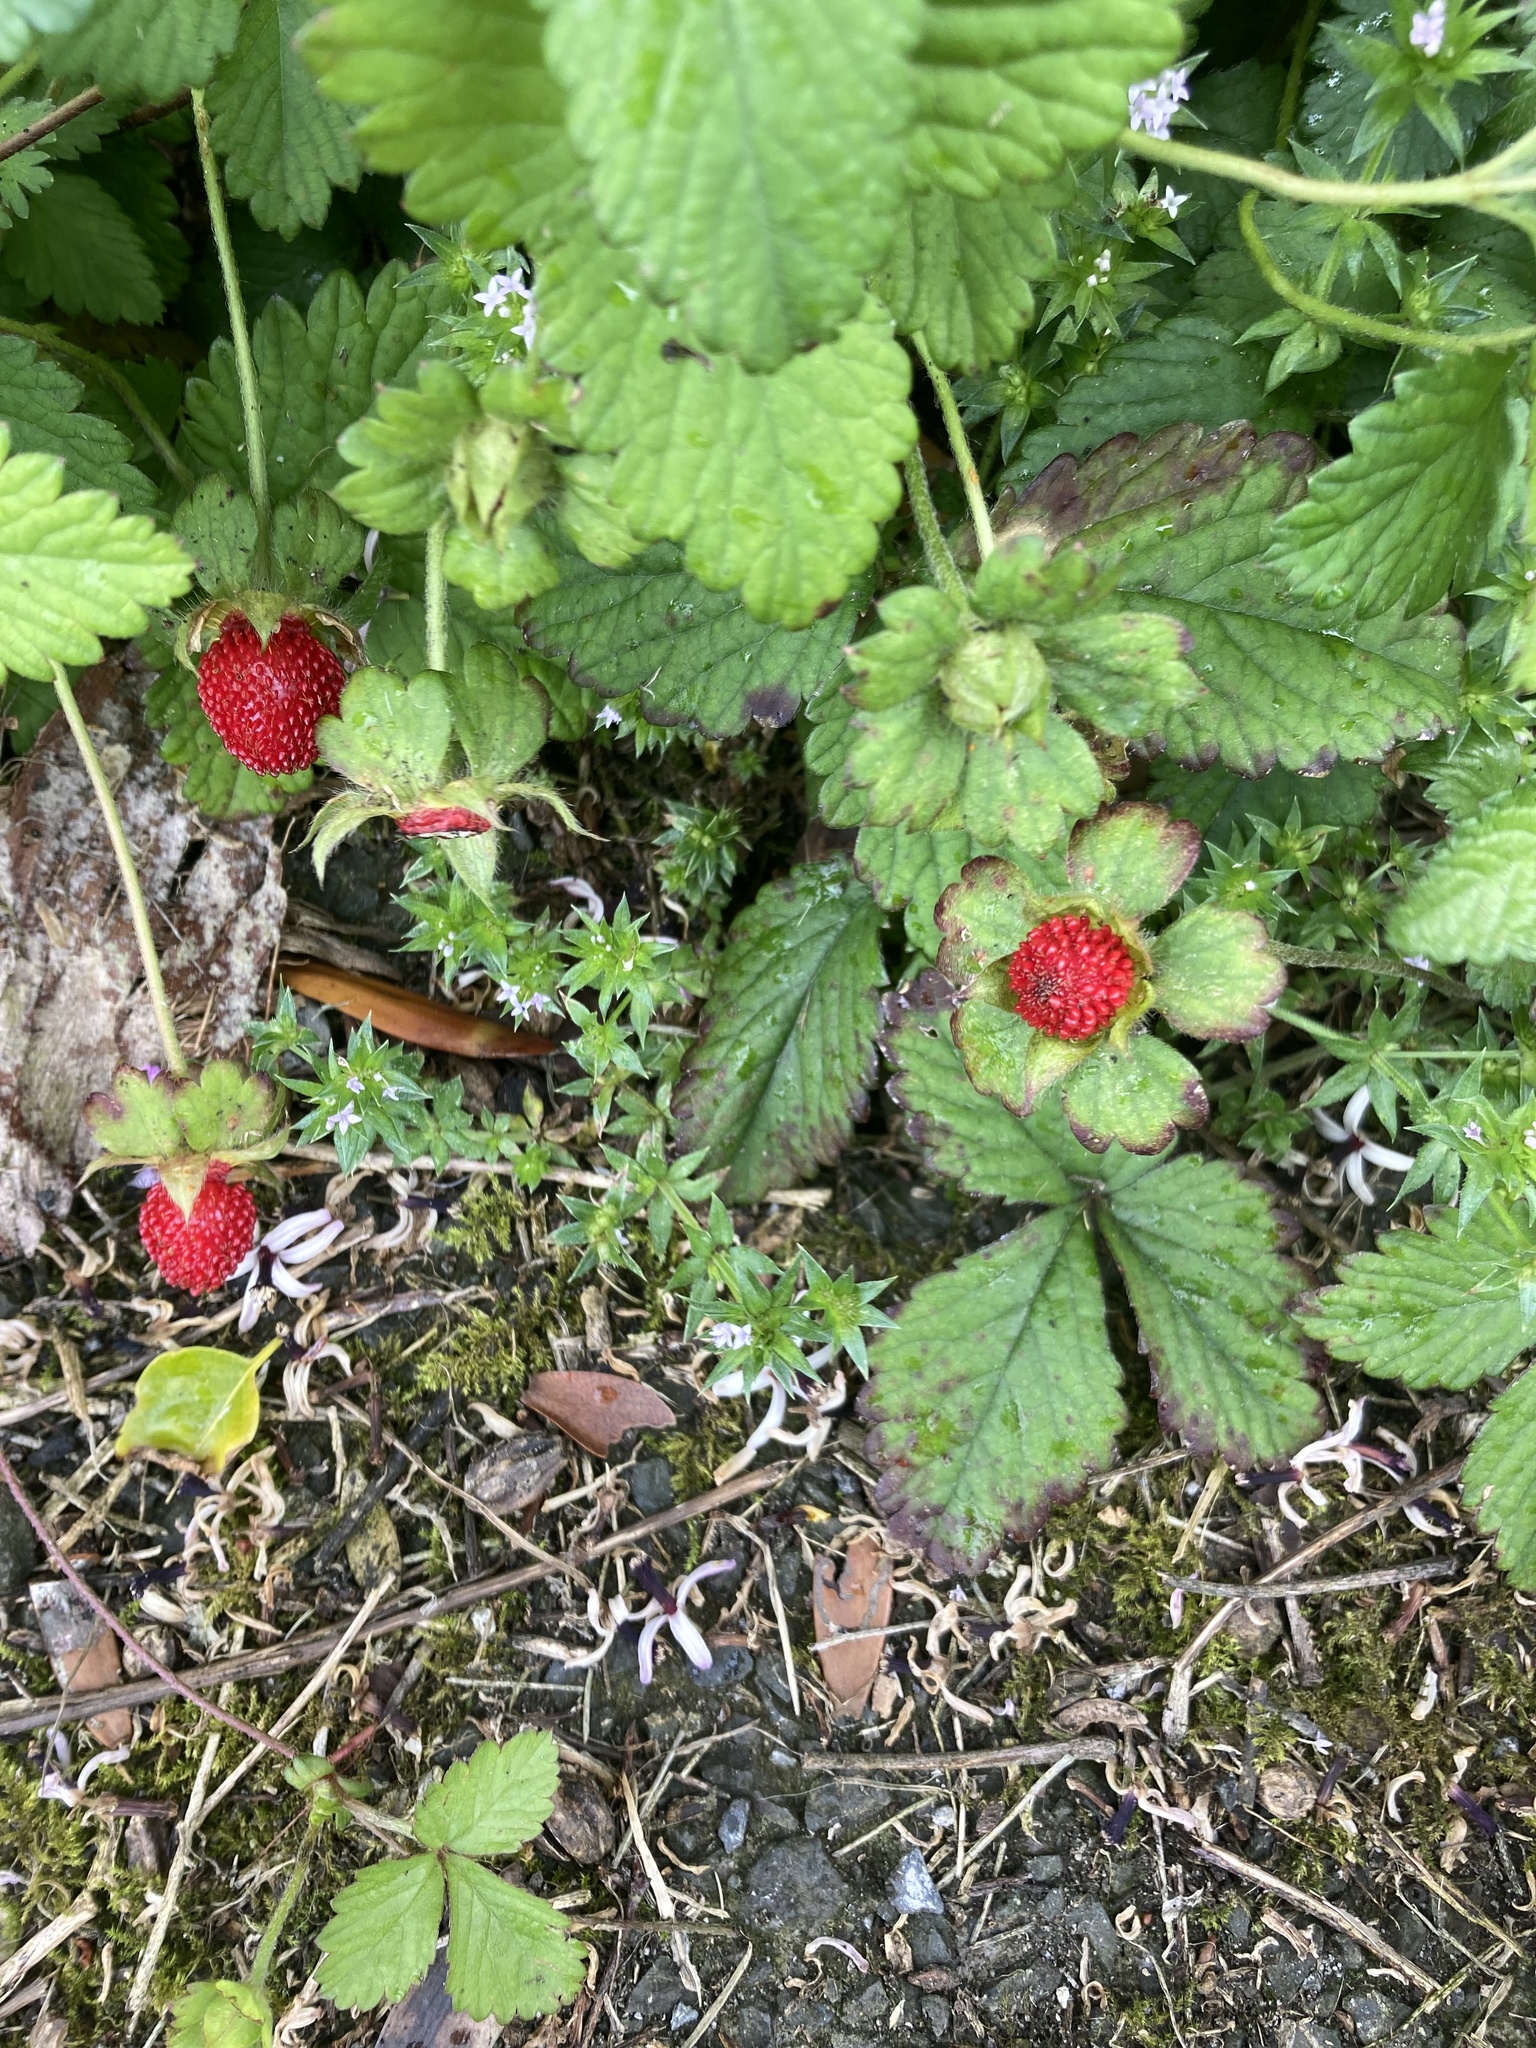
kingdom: Plantae
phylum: Tracheophyta
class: Magnoliopsida
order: Rosales
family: Rosaceae
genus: Potentilla
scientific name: Potentilla indica
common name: Yellow-flowered strawberry
